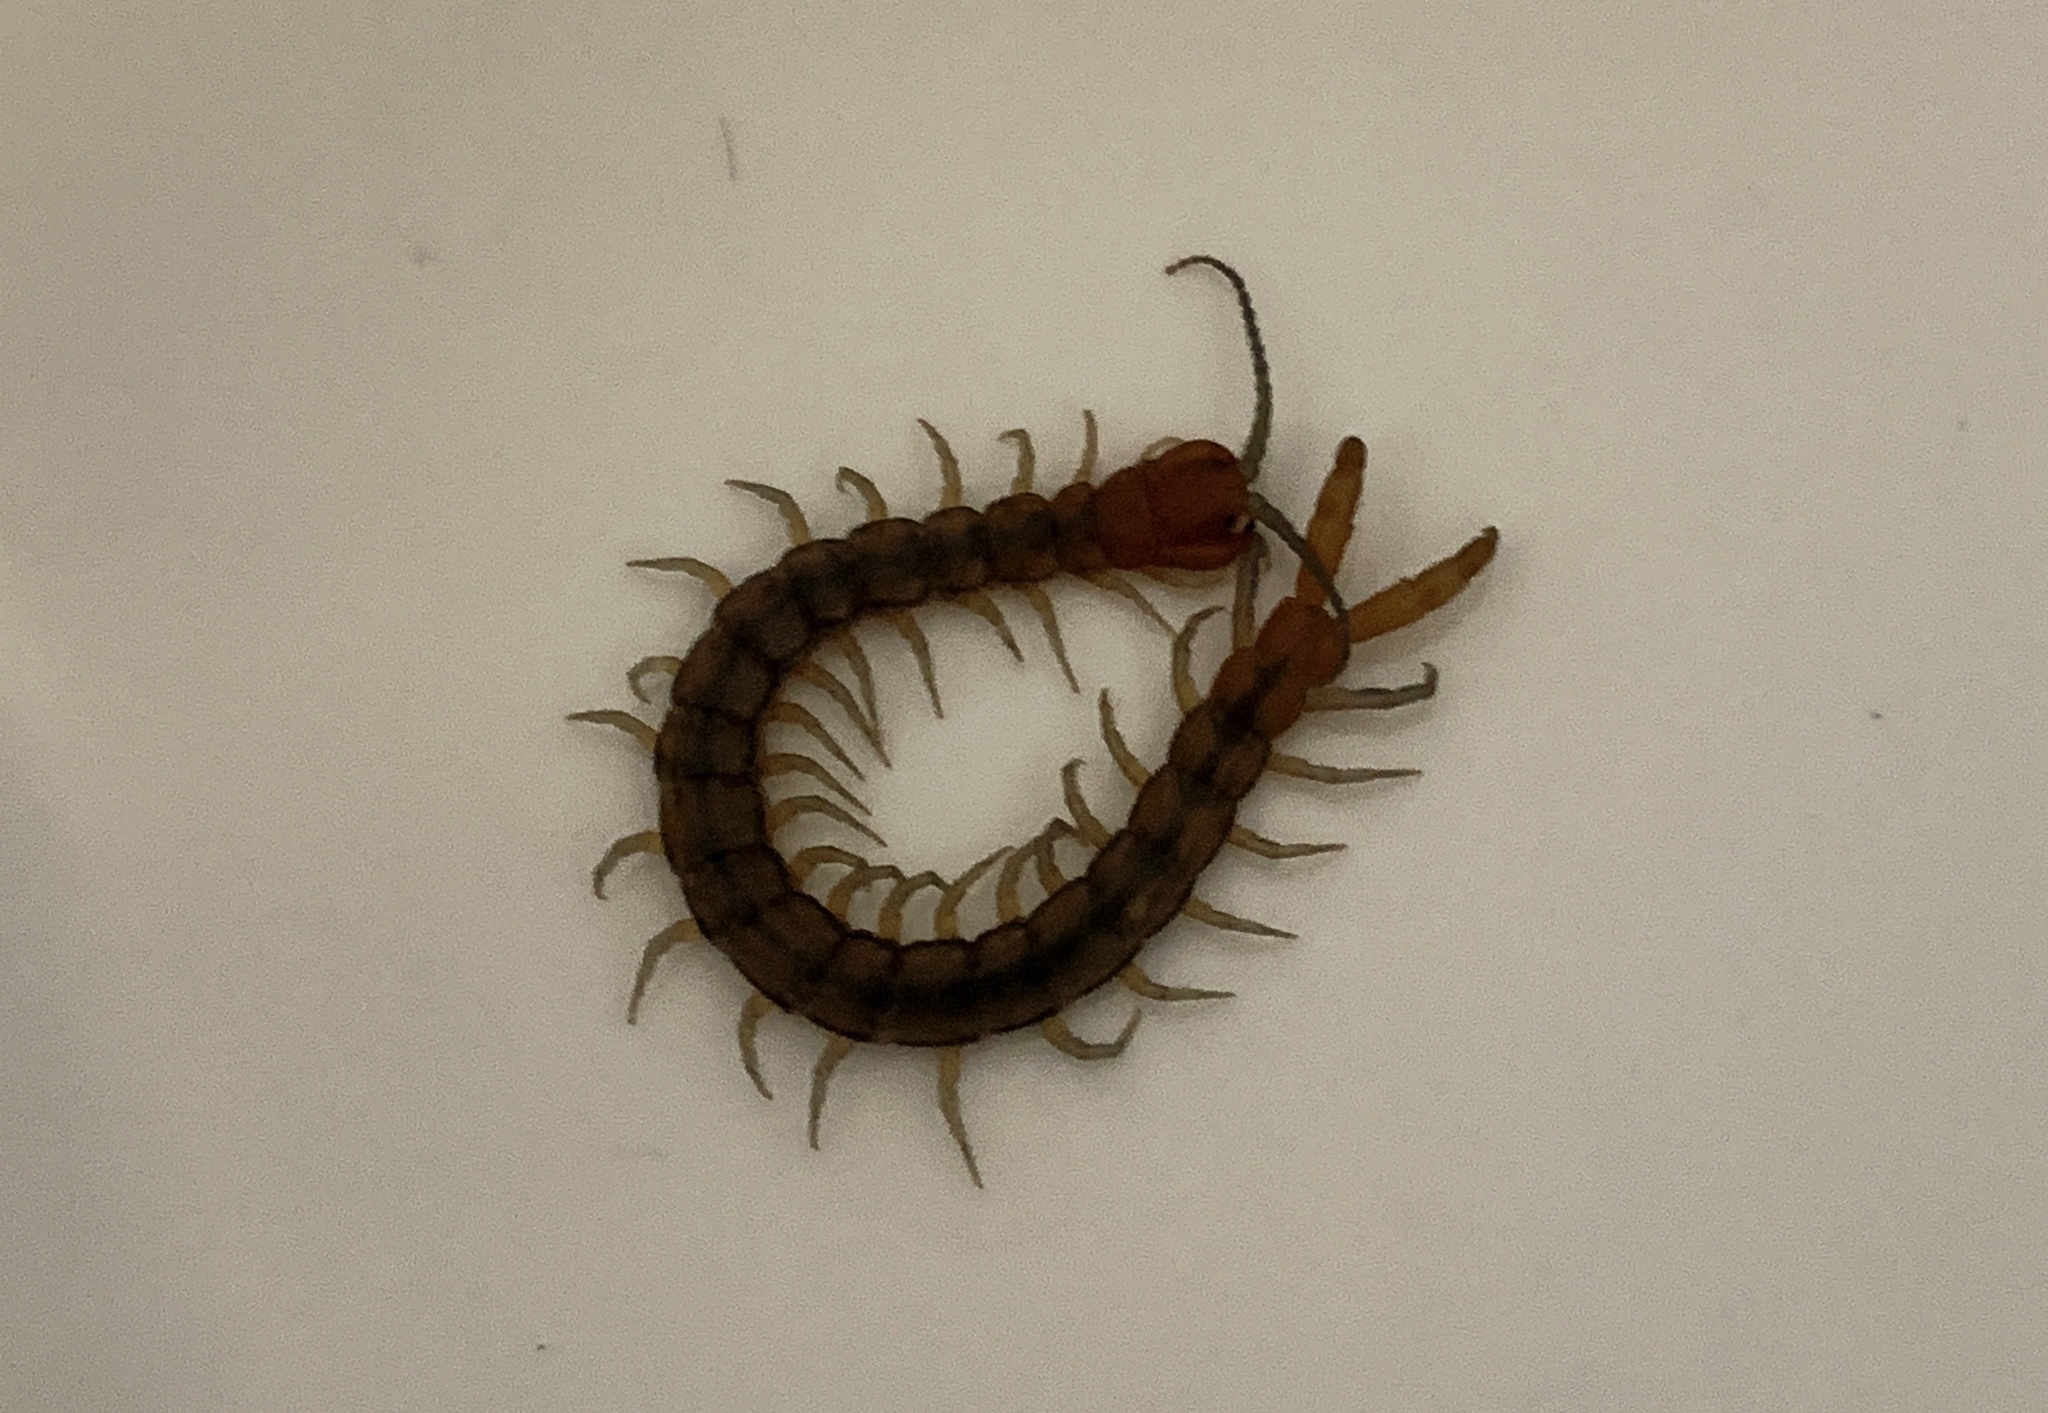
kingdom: Animalia
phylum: Arthropoda
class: Chilopoda
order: Scolopendromorpha
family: Scolopendridae
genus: Scolopendra
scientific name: Scolopendra morsitans
